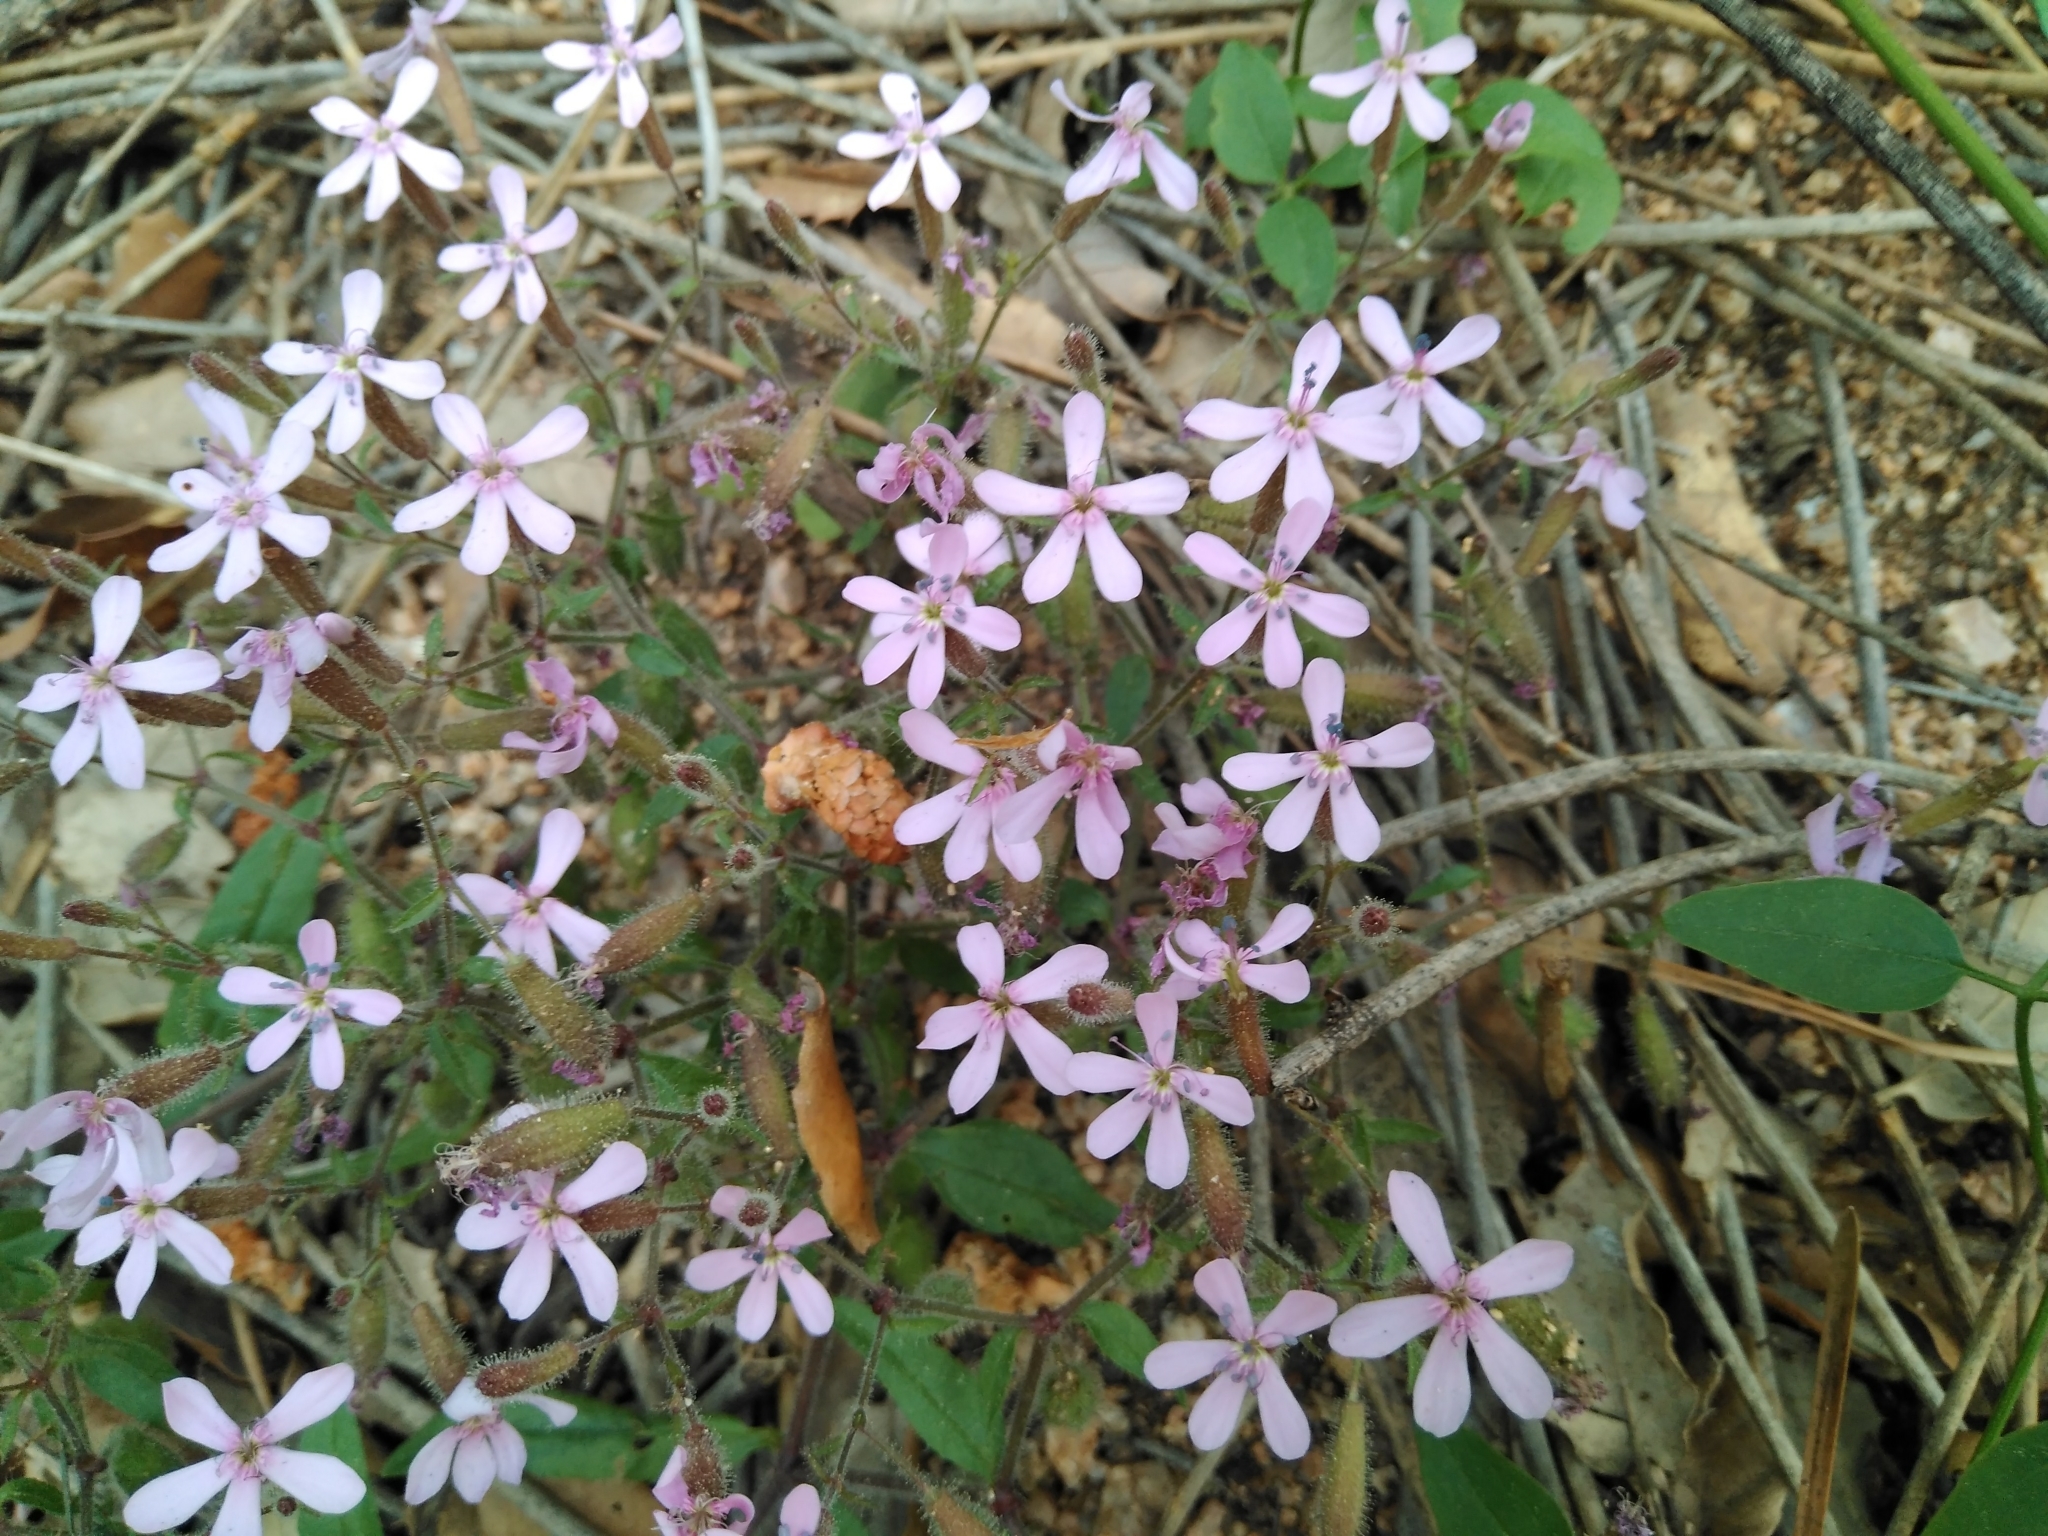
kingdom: Plantae
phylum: Tracheophyta
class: Magnoliopsida
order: Caryophyllales
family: Caryophyllaceae
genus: Saponaria
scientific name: Saponaria ocymoides
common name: Rock soapwort
